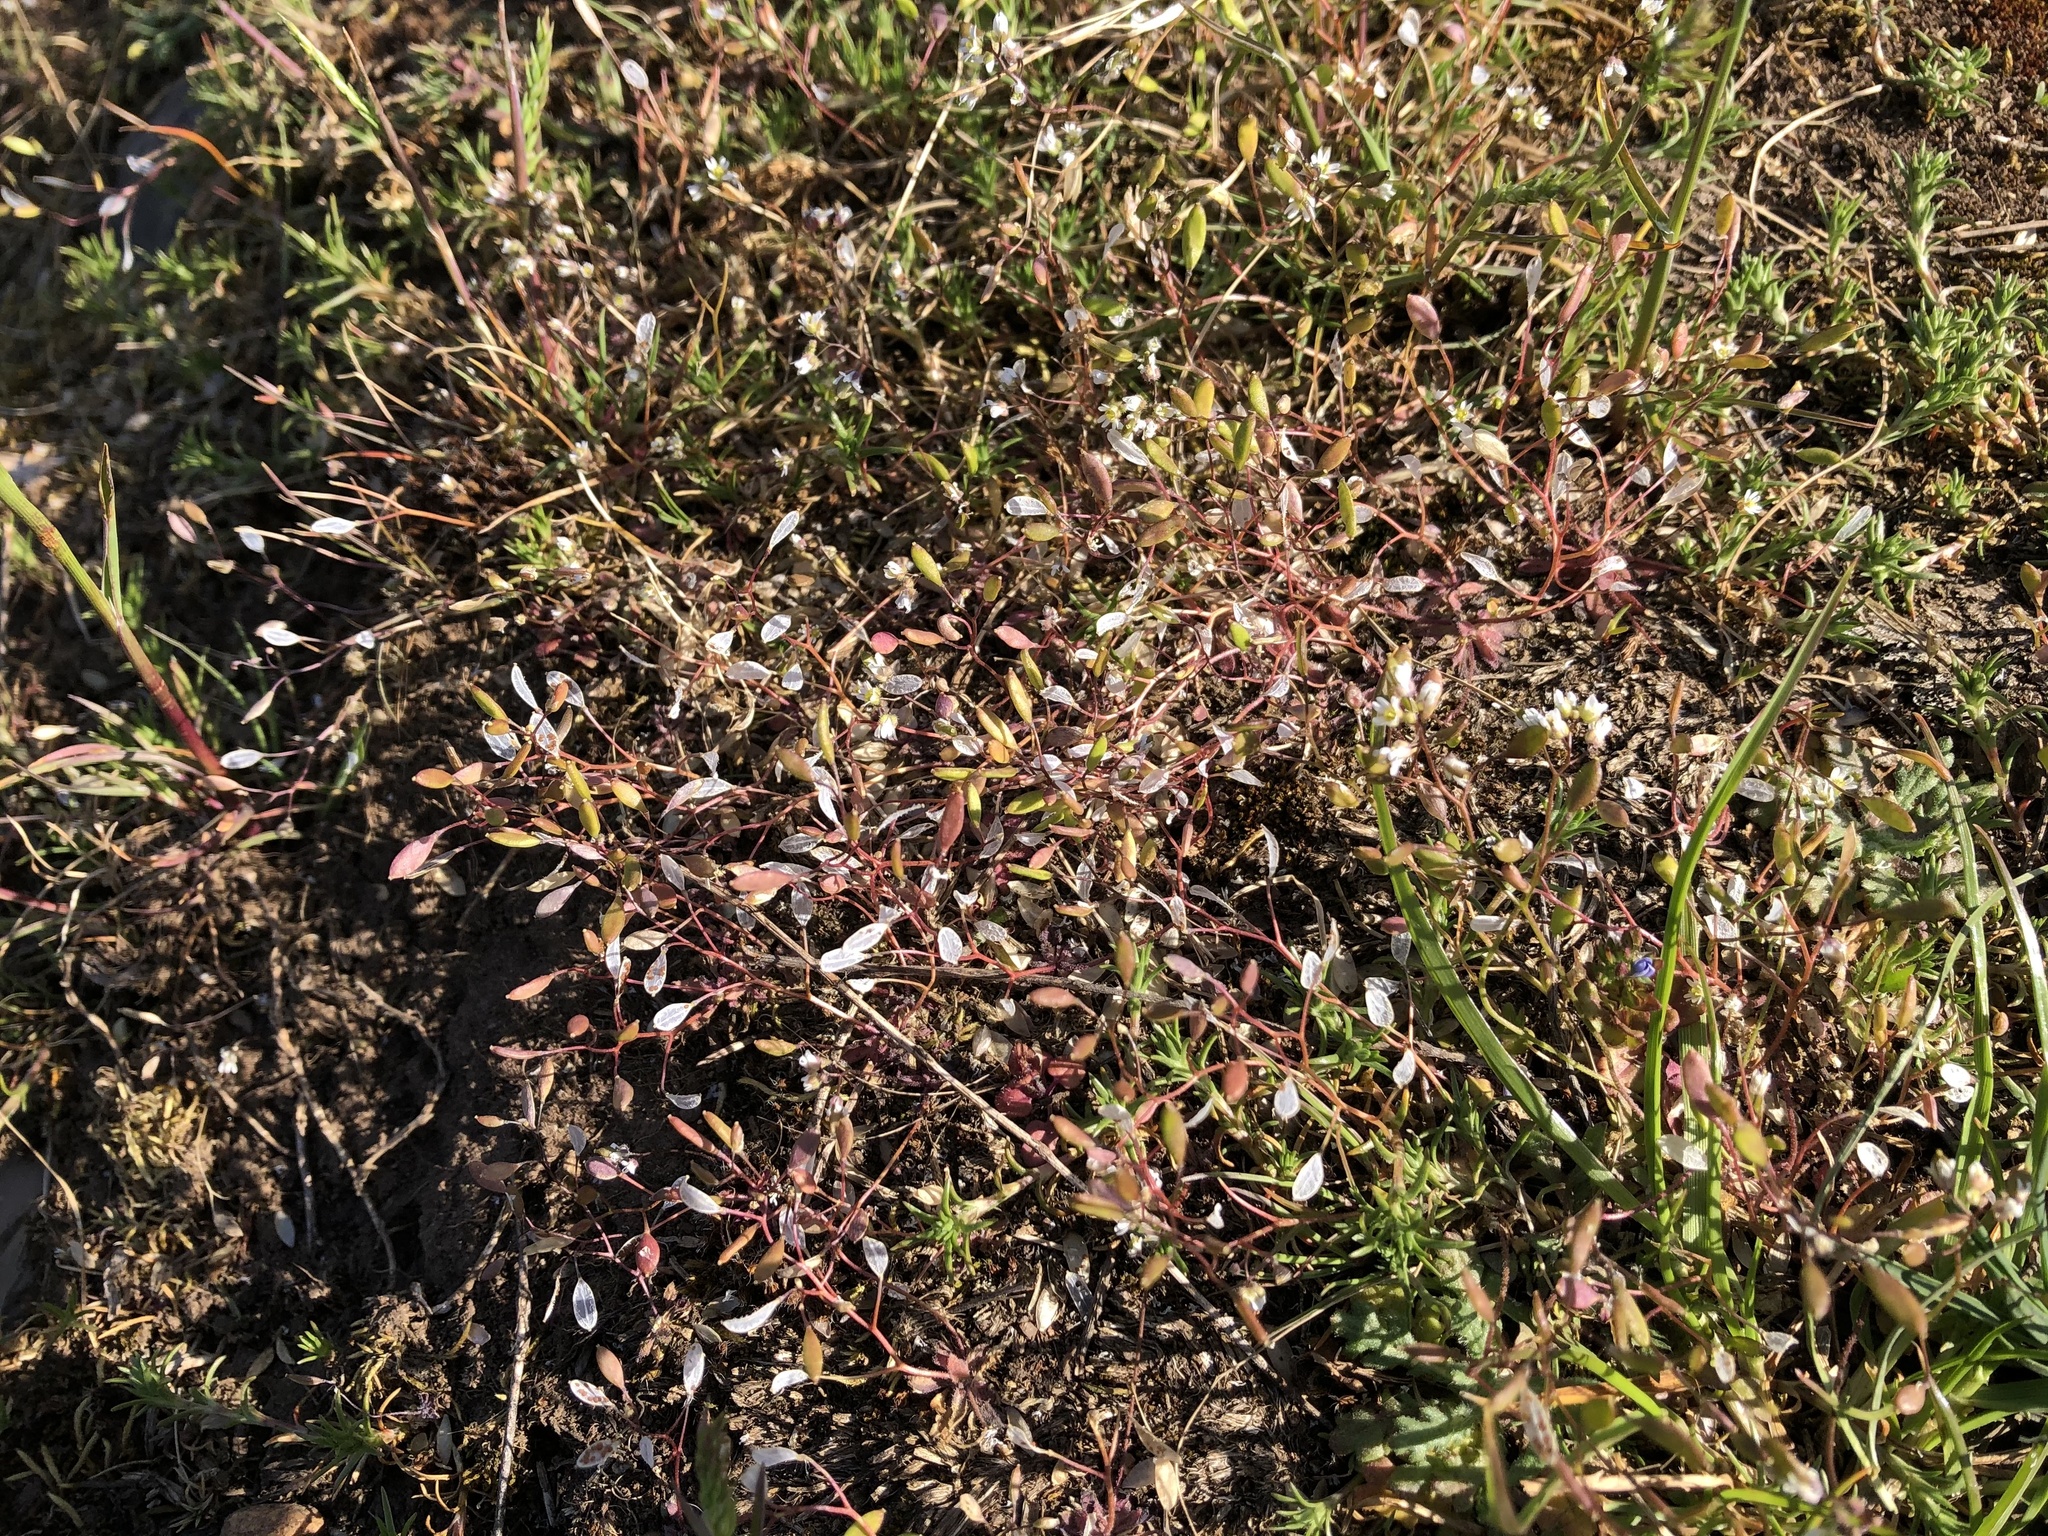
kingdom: Plantae
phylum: Tracheophyta
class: Magnoliopsida
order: Brassicales
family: Brassicaceae
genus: Draba
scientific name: Draba verna
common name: Spring draba
